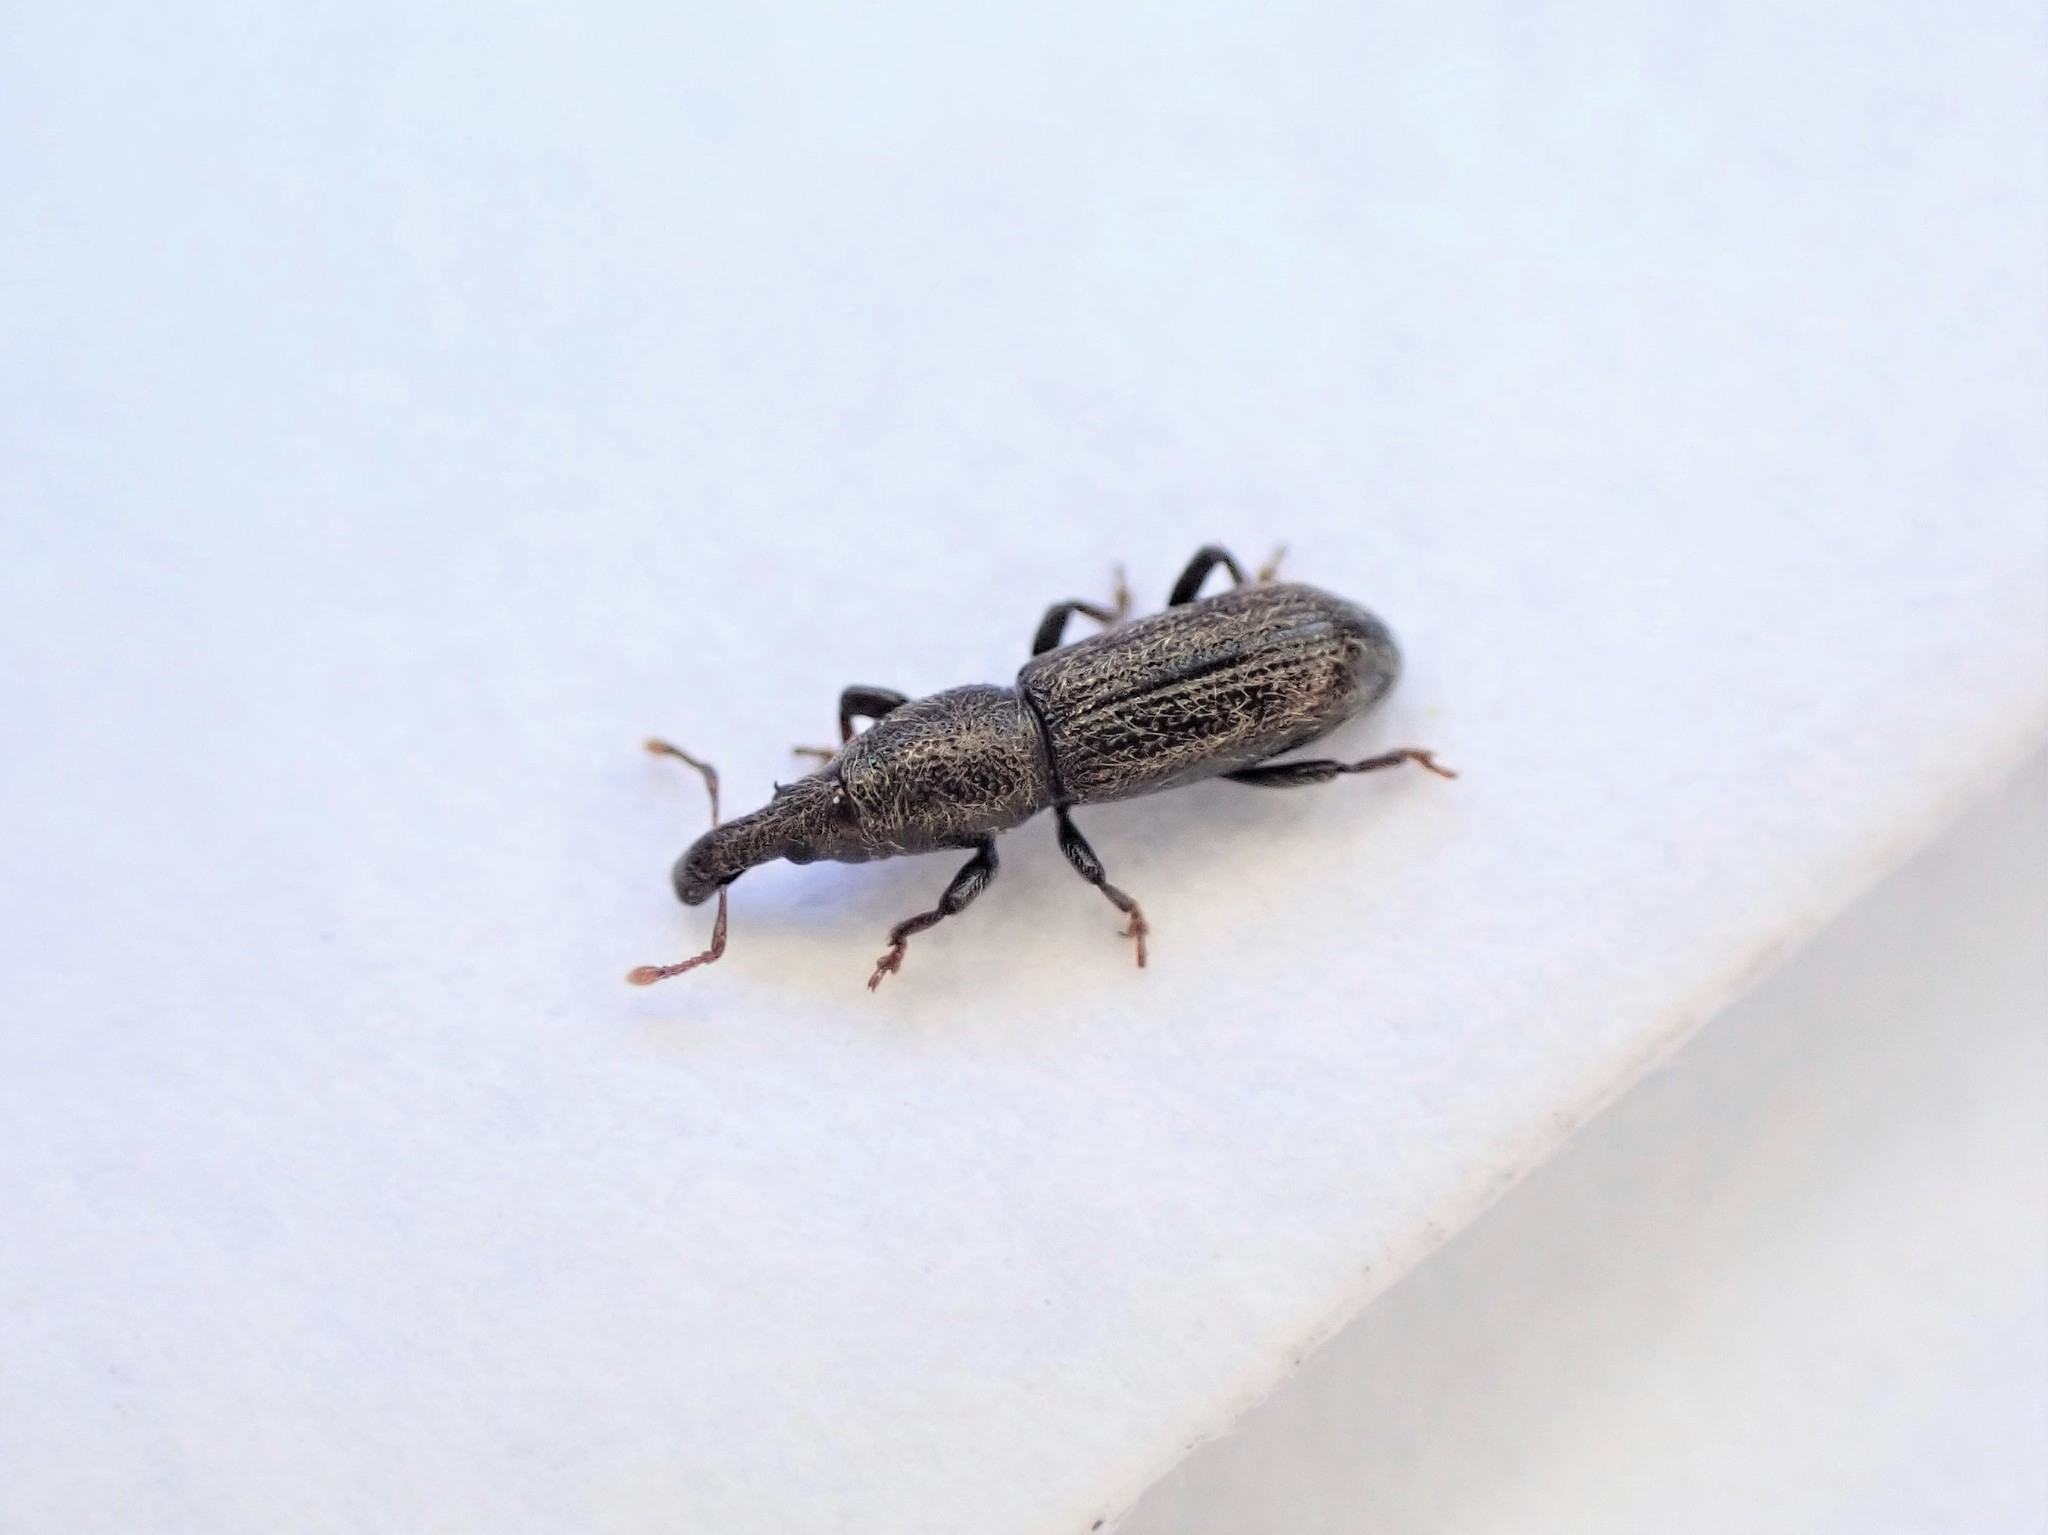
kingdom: Animalia
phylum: Arthropoda
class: Insecta
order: Coleoptera
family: Curculionidae
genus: Sericotrogus
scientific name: Sericotrogus subaenescens
